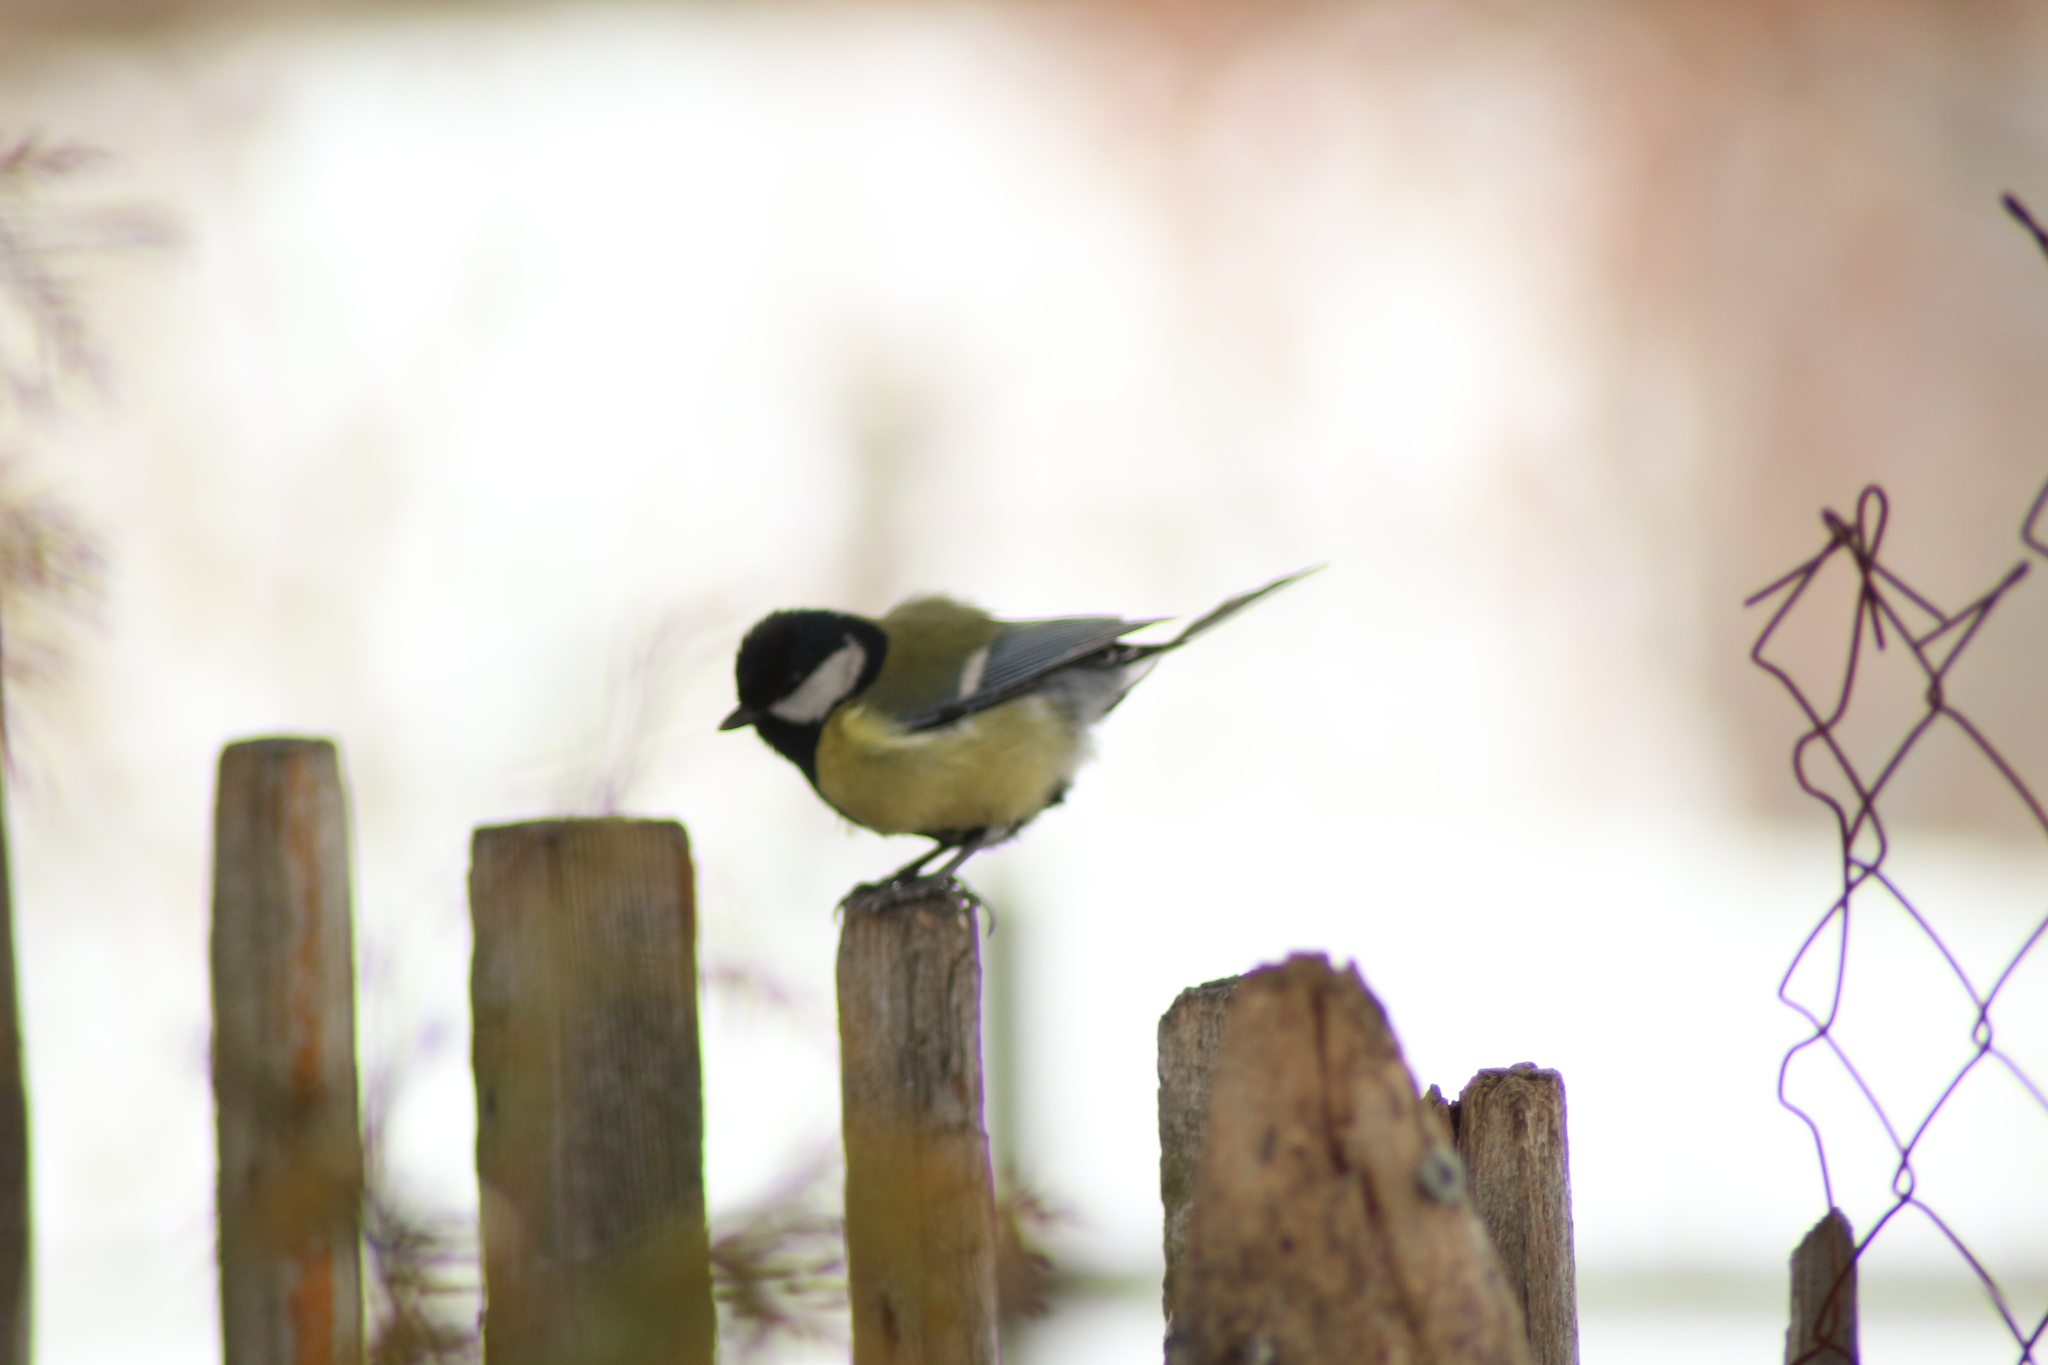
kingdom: Animalia
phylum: Chordata
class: Aves
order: Passeriformes
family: Paridae
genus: Parus
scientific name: Parus major
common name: Great tit
